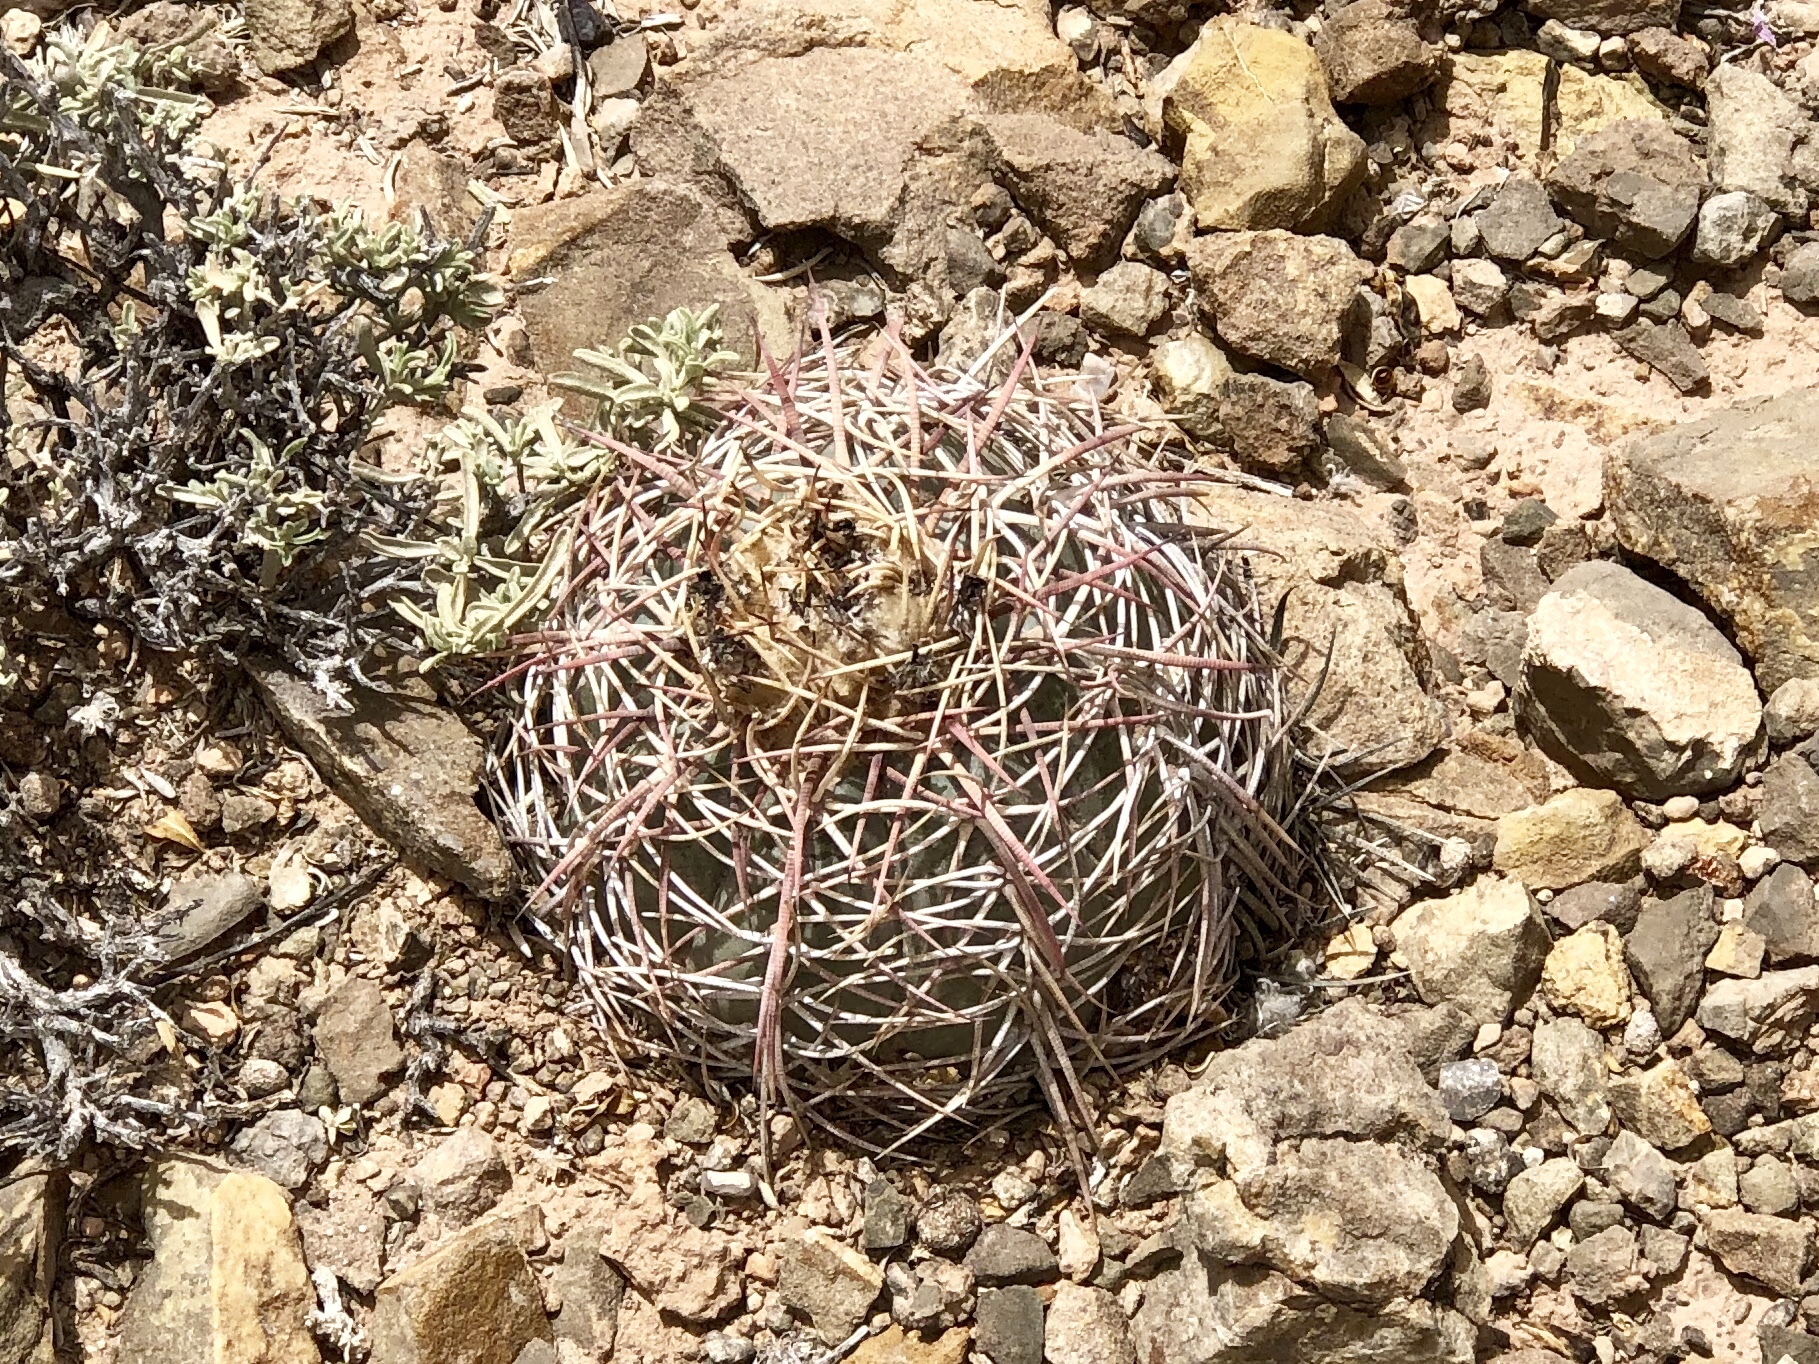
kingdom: Plantae
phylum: Tracheophyta
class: Magnoliopsida
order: Caryophyllales
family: Cactaceae
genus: Echinocactus
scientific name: Echinocactus horizonthalonius
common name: Devilshead
